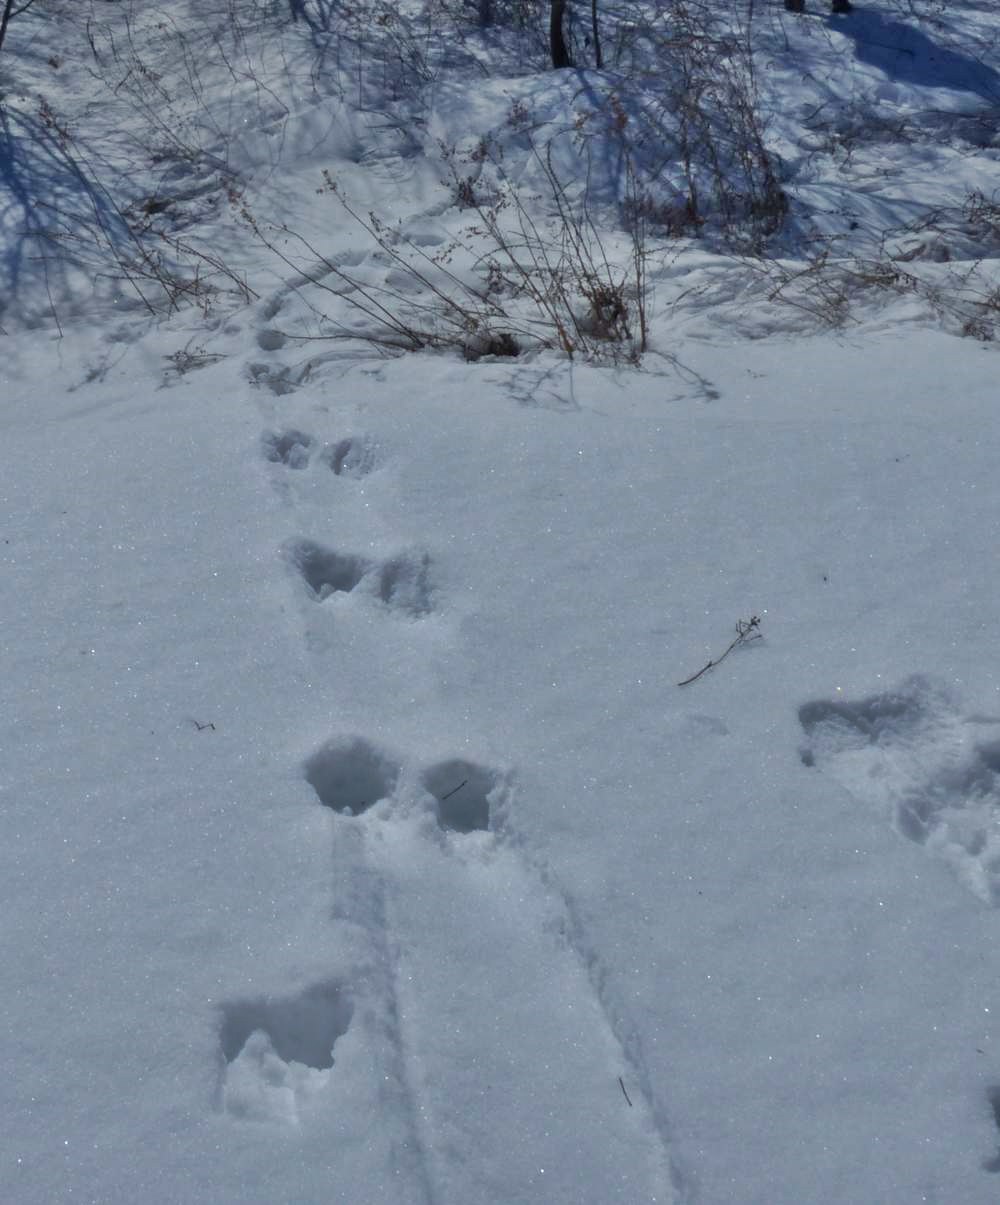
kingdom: Animalia
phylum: Chordata
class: Mammalia
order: Carnivora
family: Mustelidae
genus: Lontra
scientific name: Lontra canadensis
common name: North american river otter
